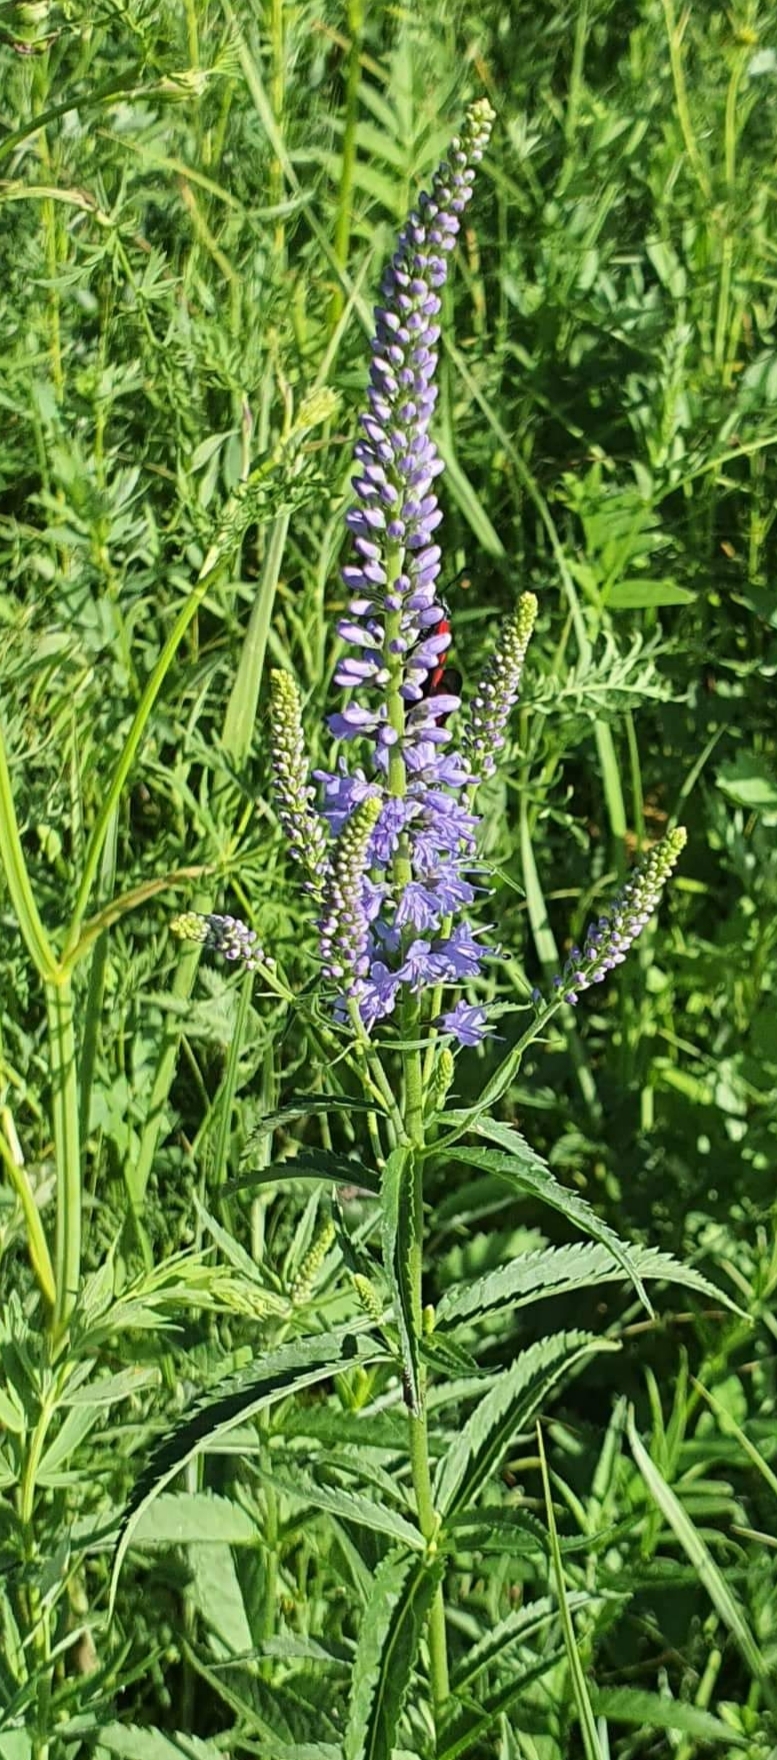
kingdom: Plantae
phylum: Tracheophyta
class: Magnoliopsida
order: Lamiales
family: Plantaginaceae
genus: Veronica
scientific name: Veronica longifolia
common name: Garden speedwell
